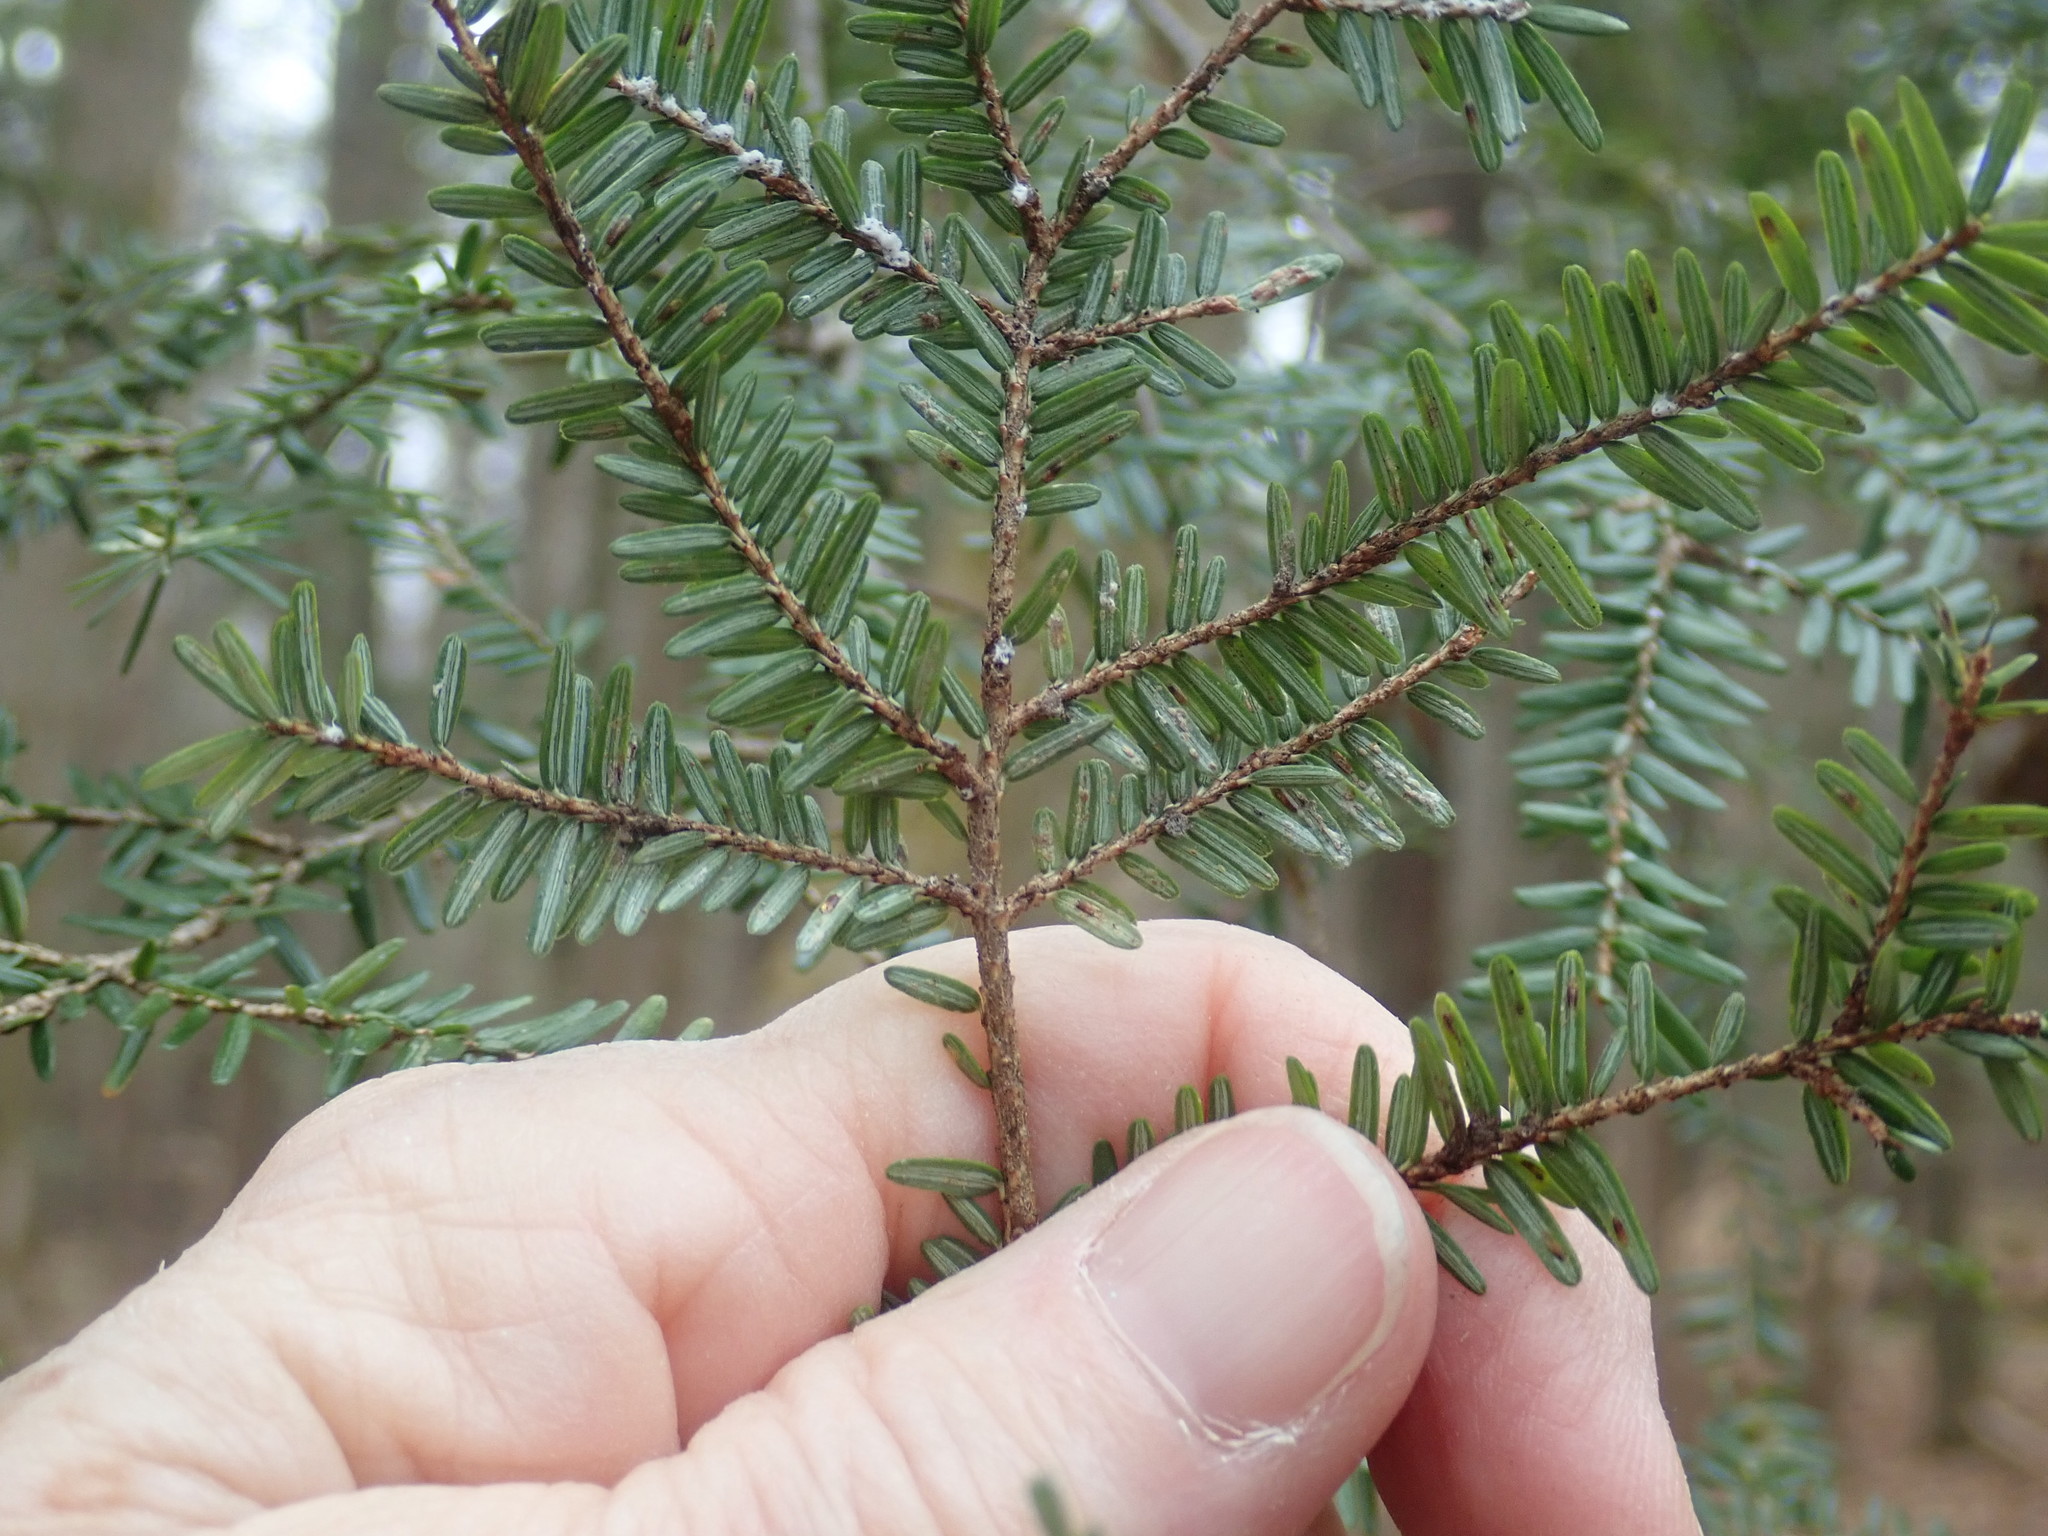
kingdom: Plantae
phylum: Tracheophyta
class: Pinopsida
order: Pinales
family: Pinaceae
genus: Tsuga
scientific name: Tsuga canadensis
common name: Eastern hemlock
